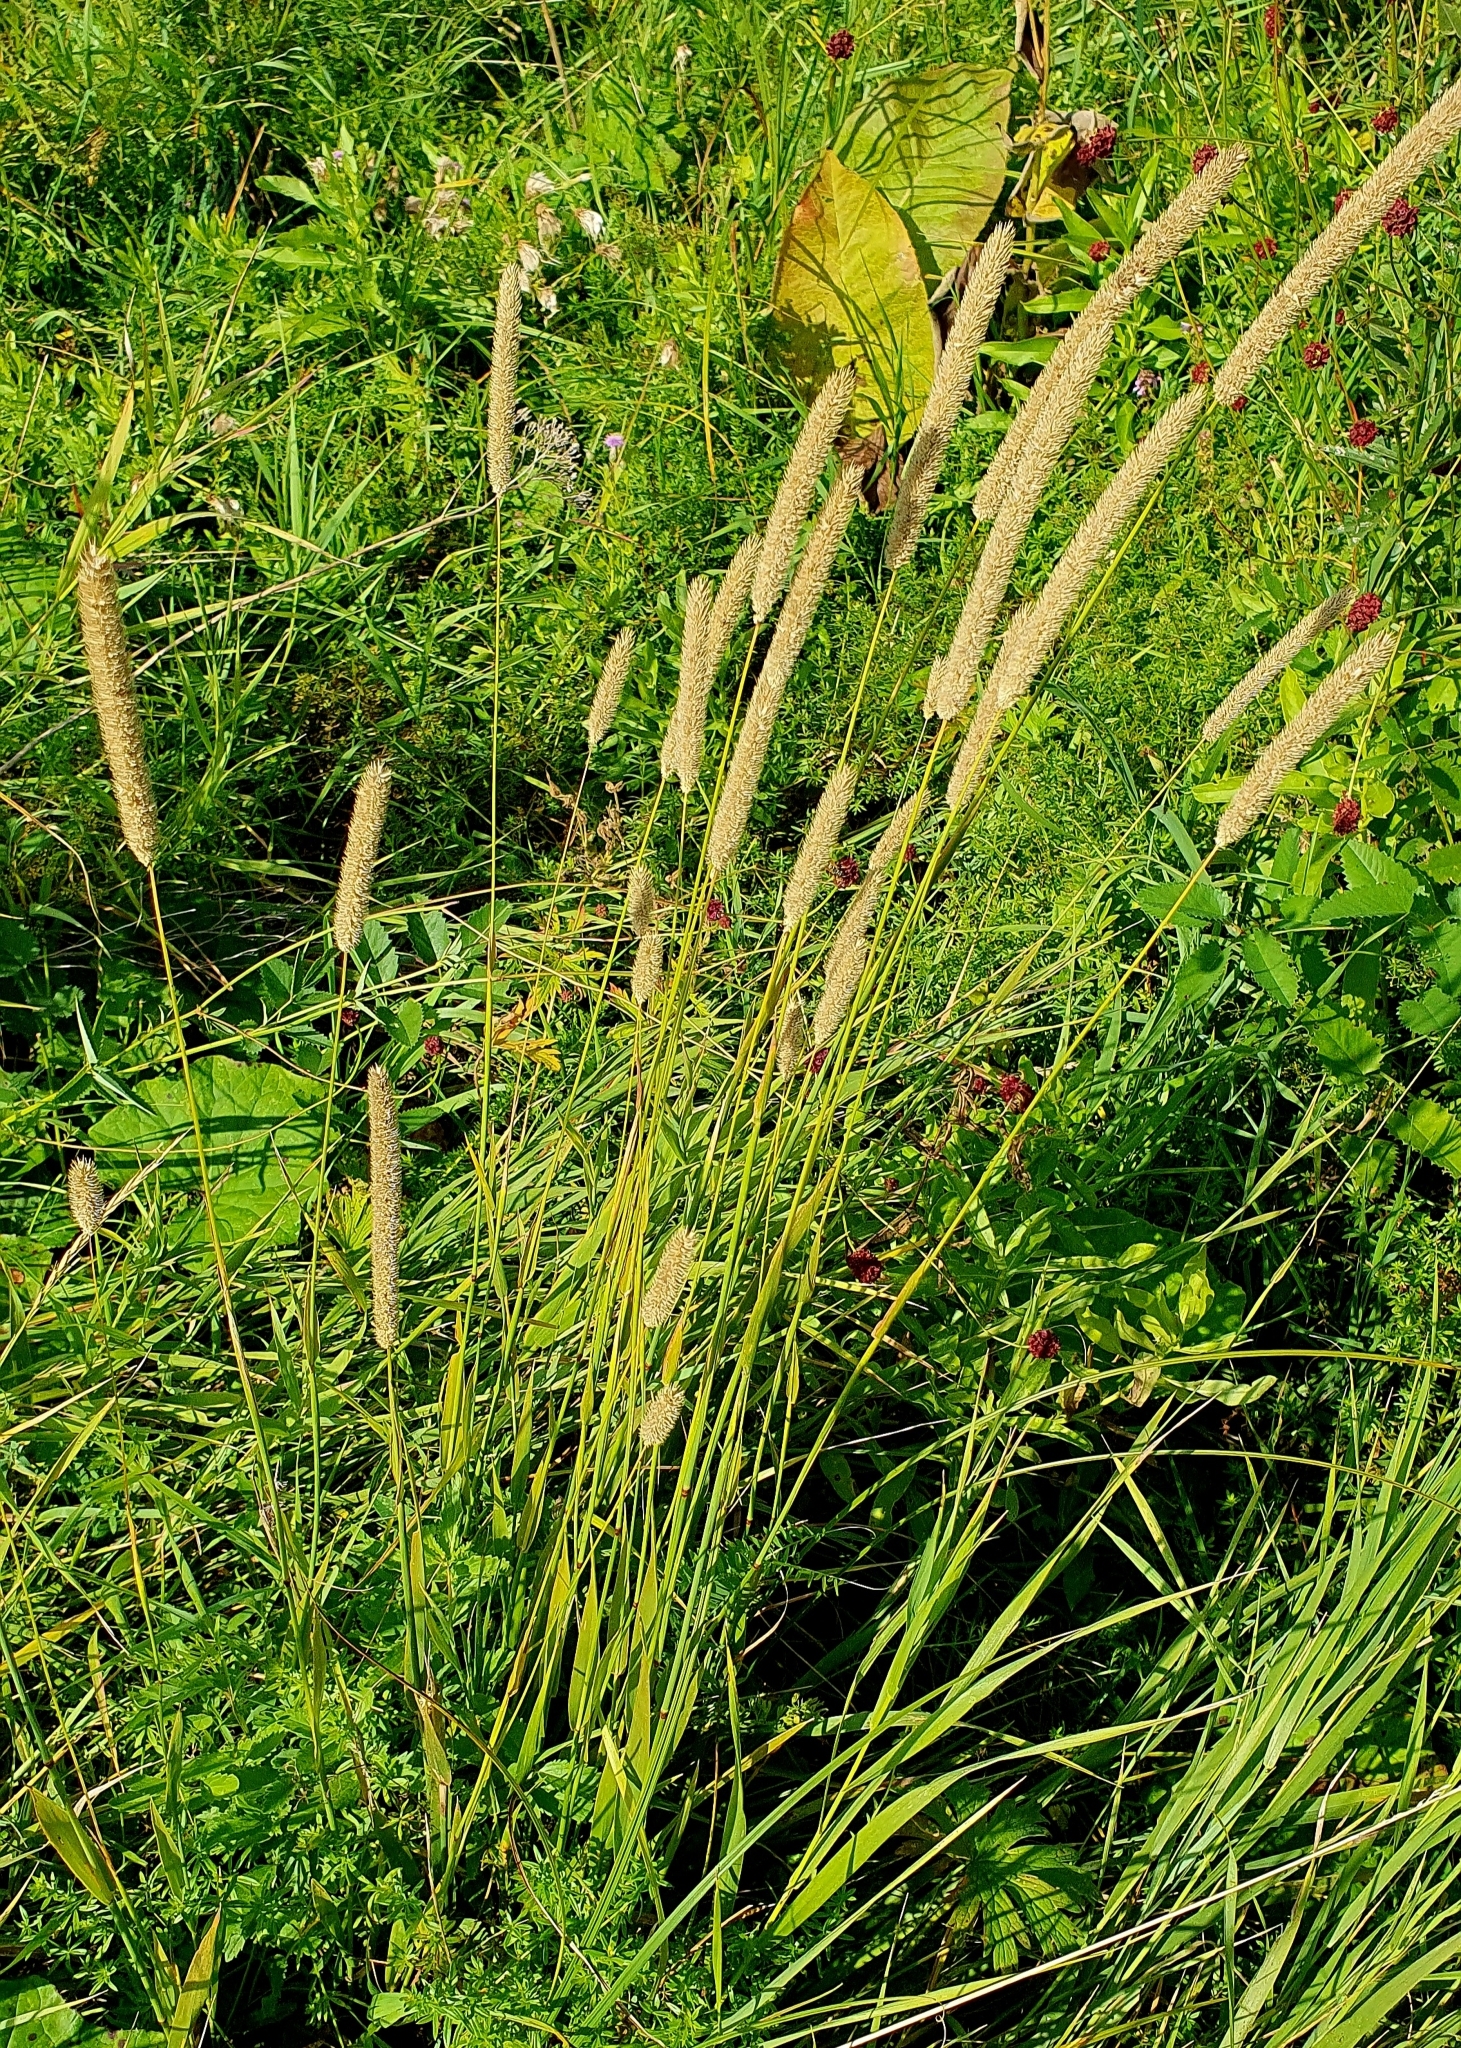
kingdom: Plantae
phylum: Tracheophyta
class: Liliopsida
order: Poales
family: Poaceae
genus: Phleum
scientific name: Phleum pratense
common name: Timothy grass
